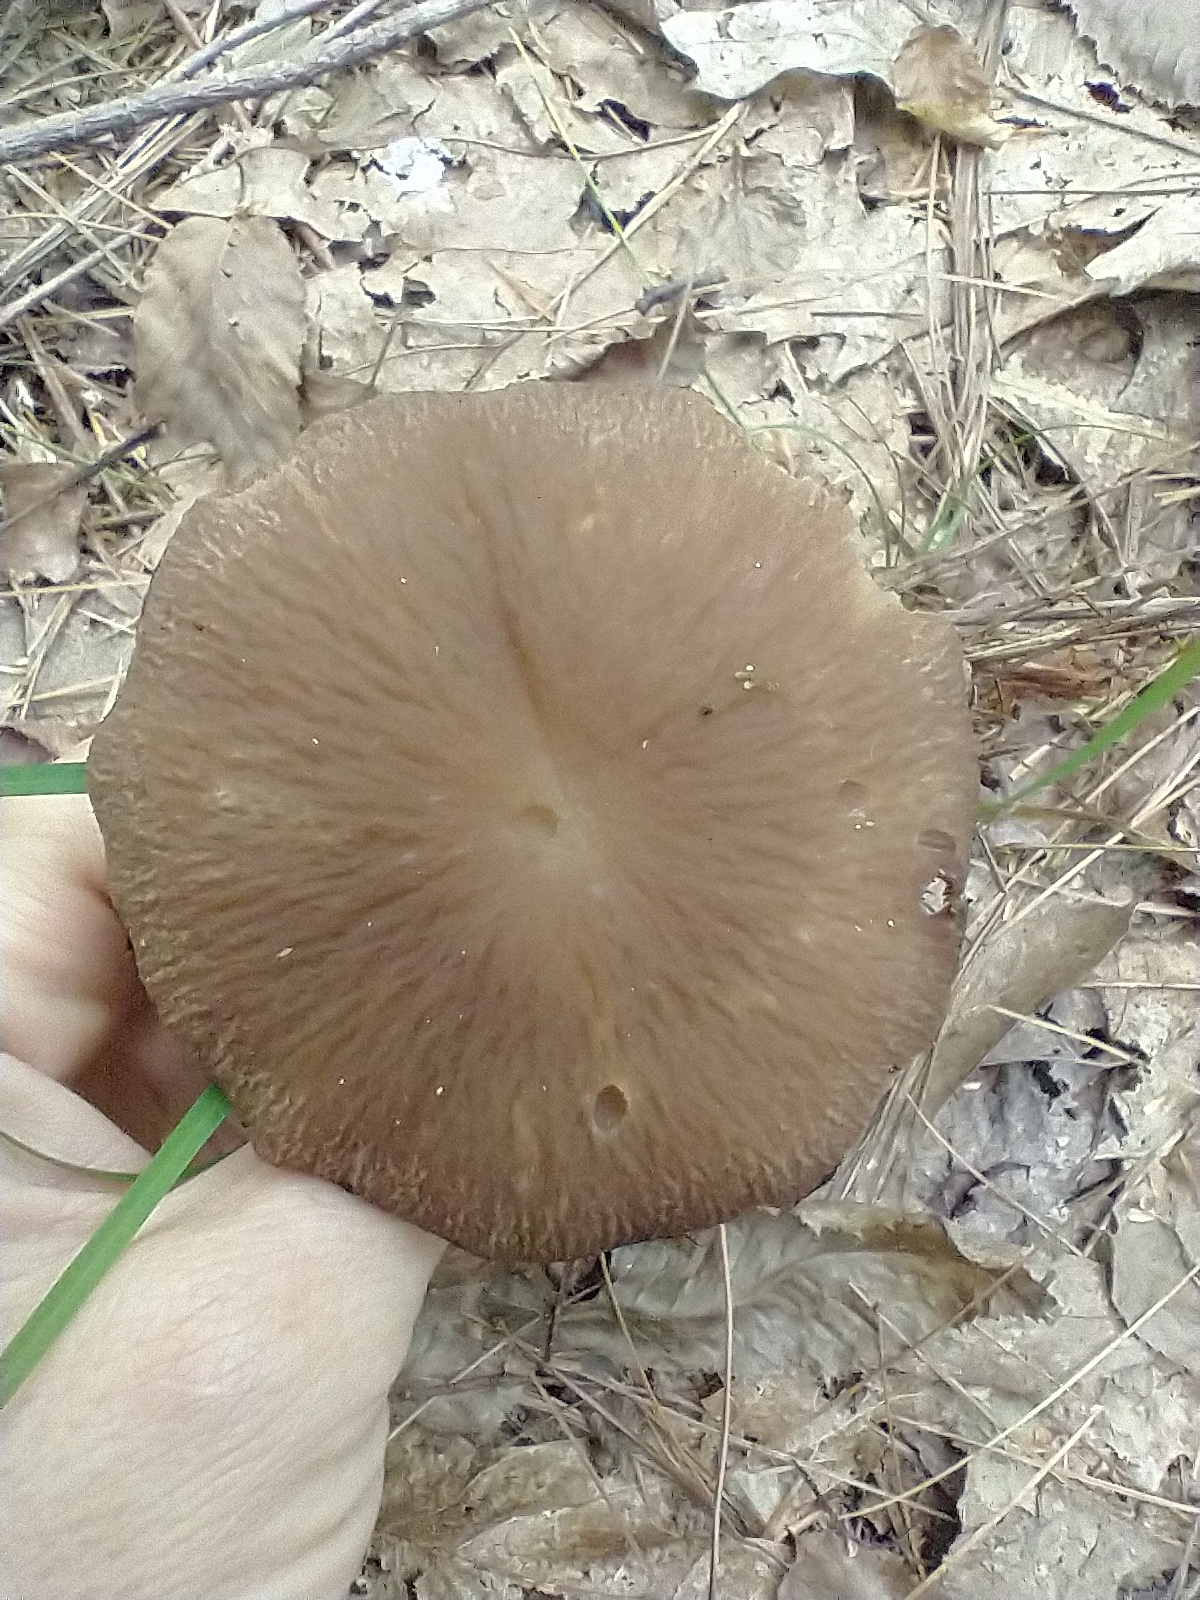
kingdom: Fungi
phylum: Basidiomycota
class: Agaricomycetes
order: Agaricales
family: Psathyrellaceae
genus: Typhrasa
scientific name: Typhrasa gossypina
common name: Wrinkled psathyrella
